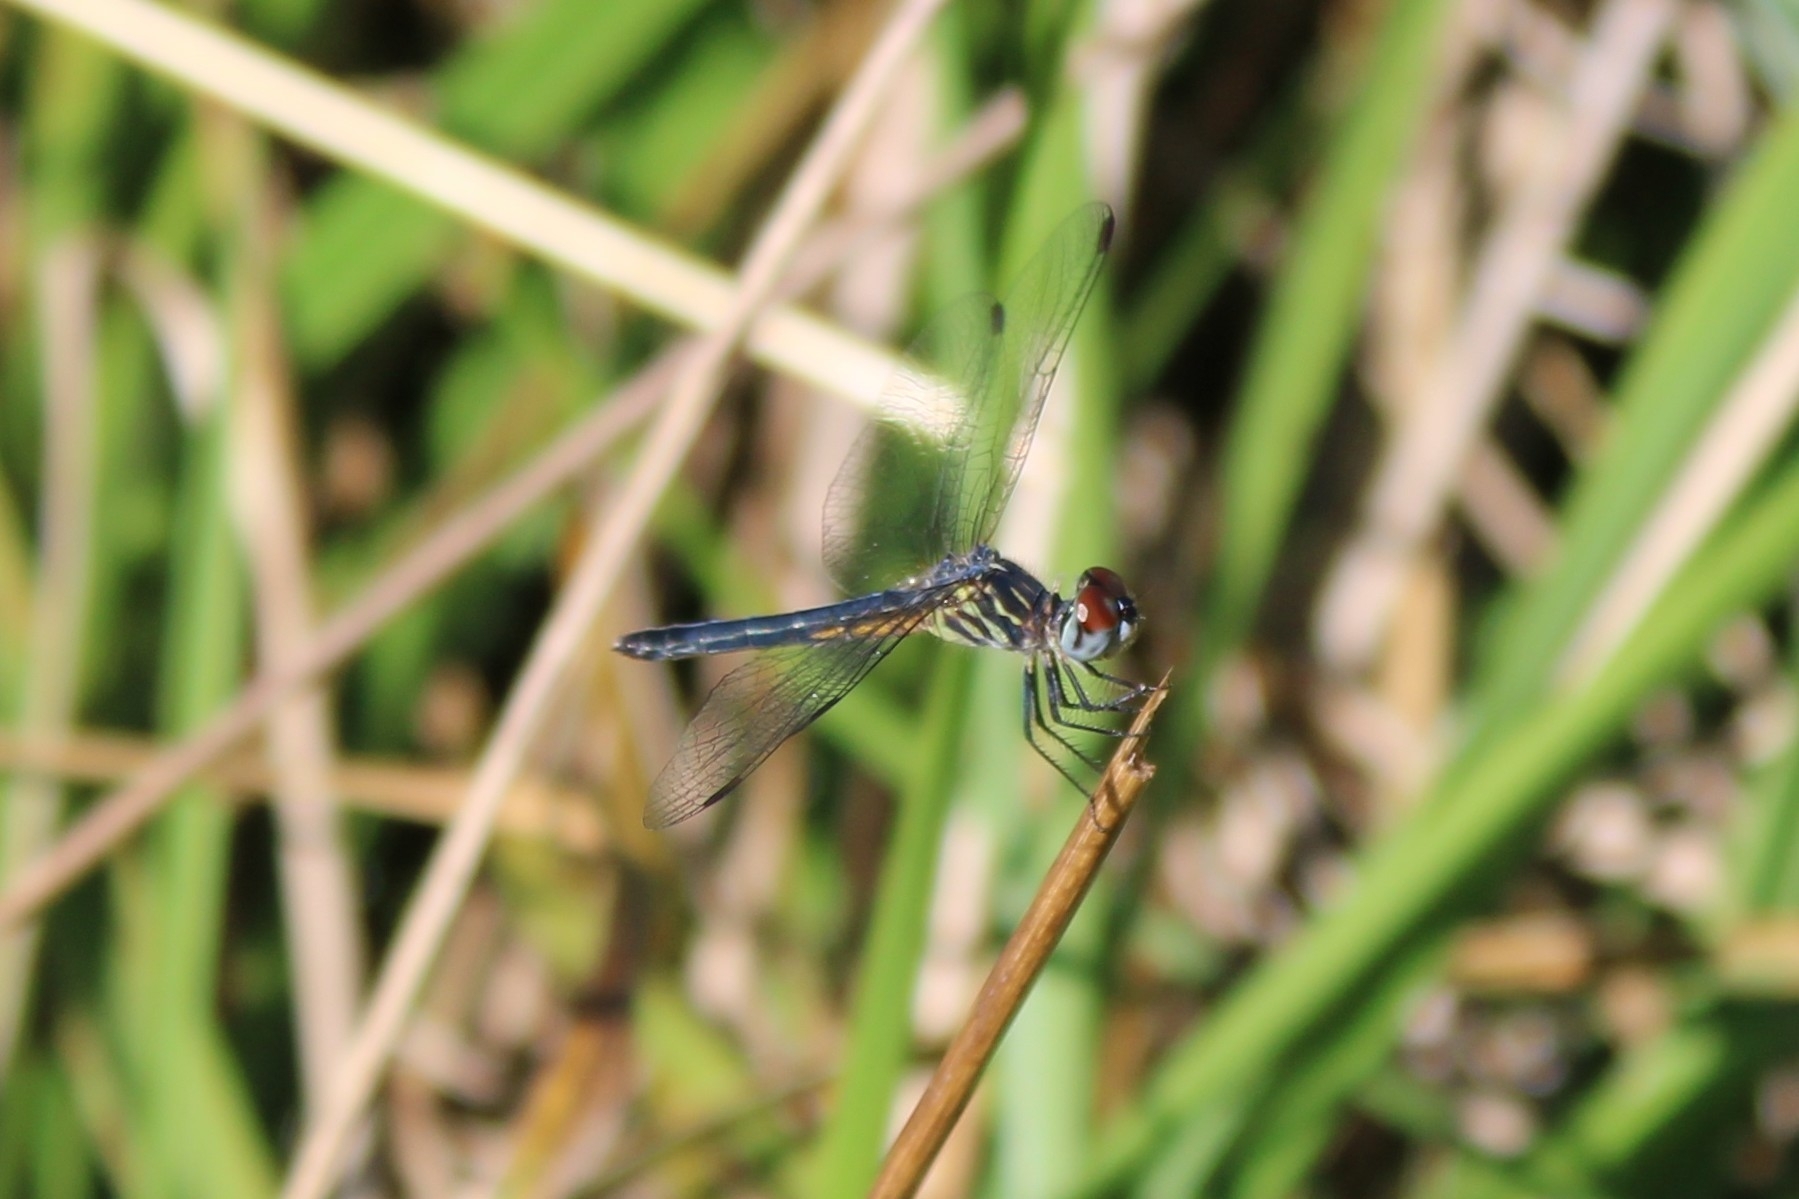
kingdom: Animalia
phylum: Arthropoda
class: Insecta
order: Odonata
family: Libellulidae
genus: Pachydiplax
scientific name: Pachydiplax longipennis
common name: Blue dasher
